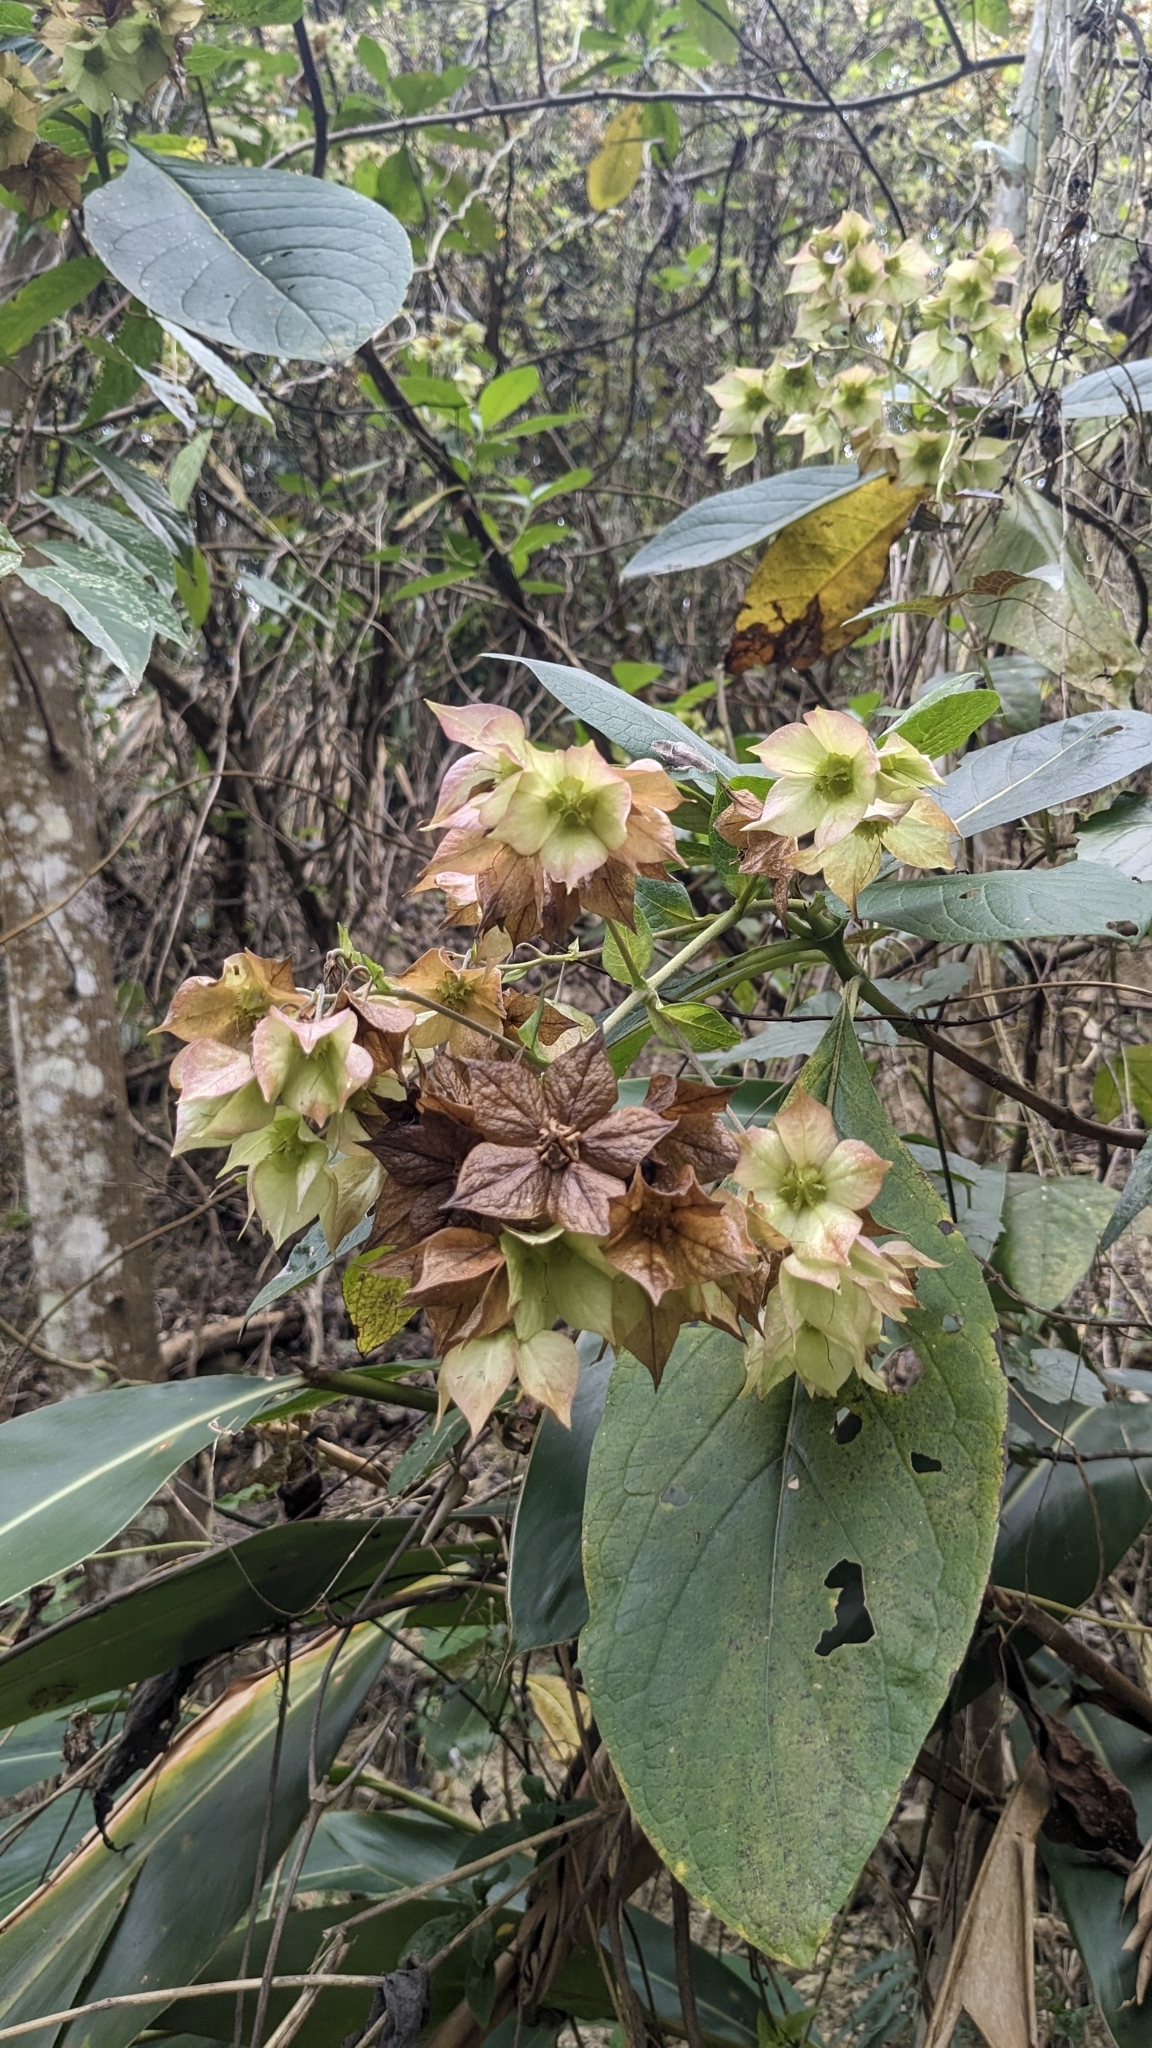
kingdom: Plantae
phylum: Tracheophyta
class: Magnoliopsida
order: Boraginales
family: Boraginaceae
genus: Trichodesma
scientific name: Trichodesma calycosum
